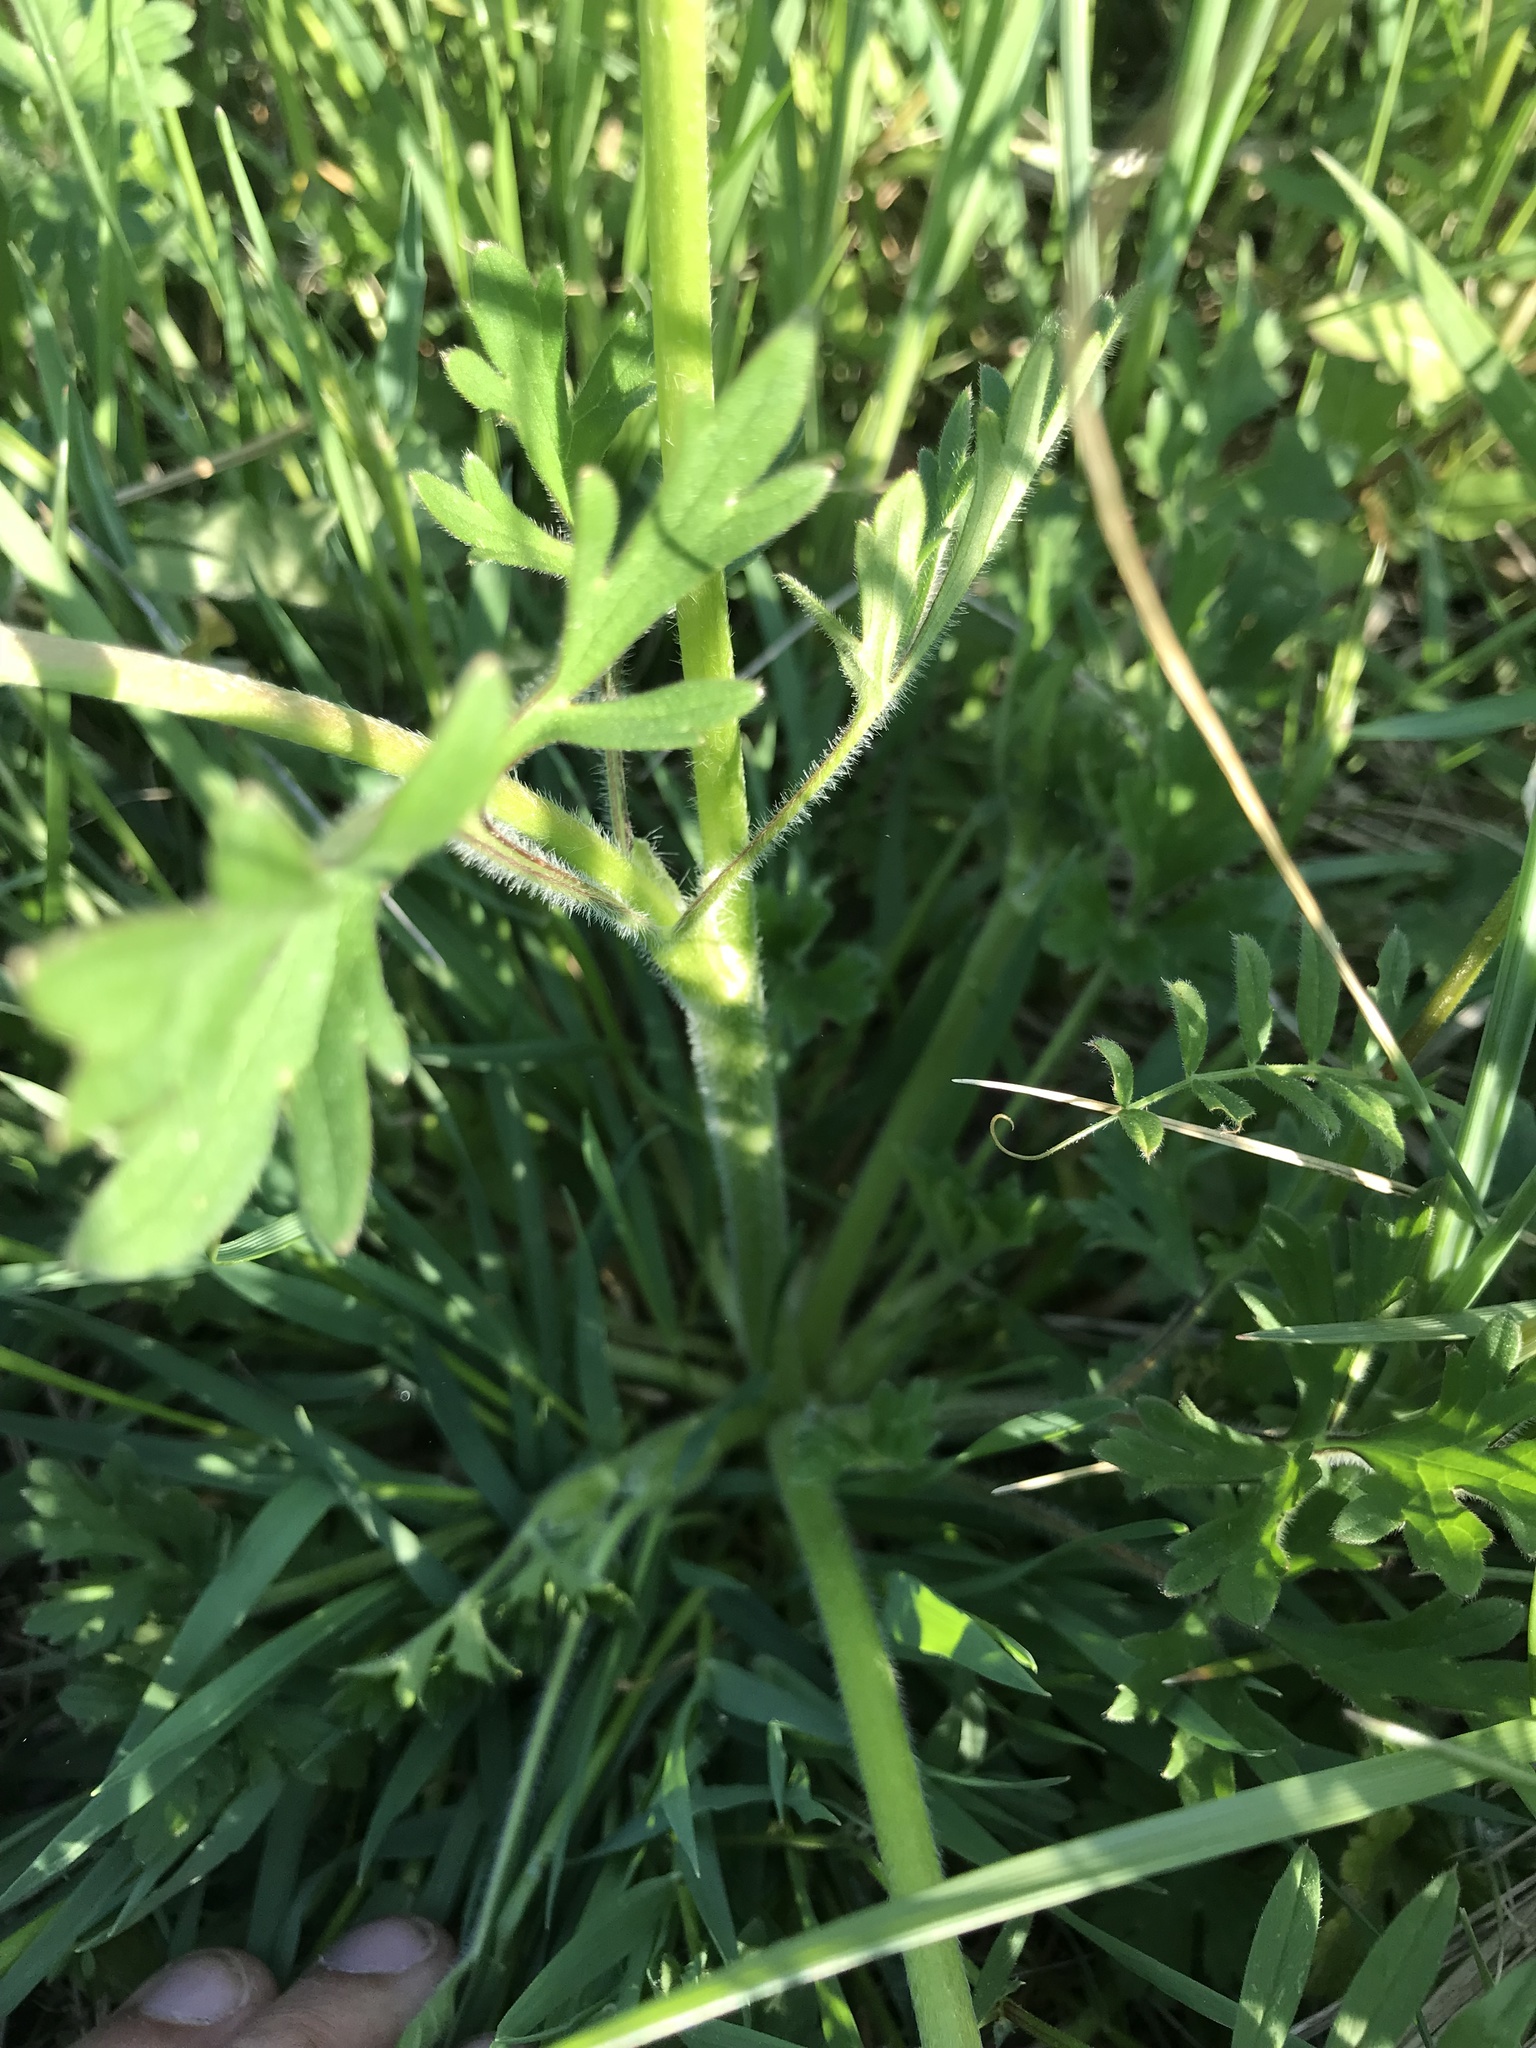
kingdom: Plantae
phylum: Tracheophyta
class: Magnoliopsida
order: Ranunculales
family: Ranunculaceae
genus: Ranunculus
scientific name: Ranunculus bulbosus
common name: Bulbous buttercup
